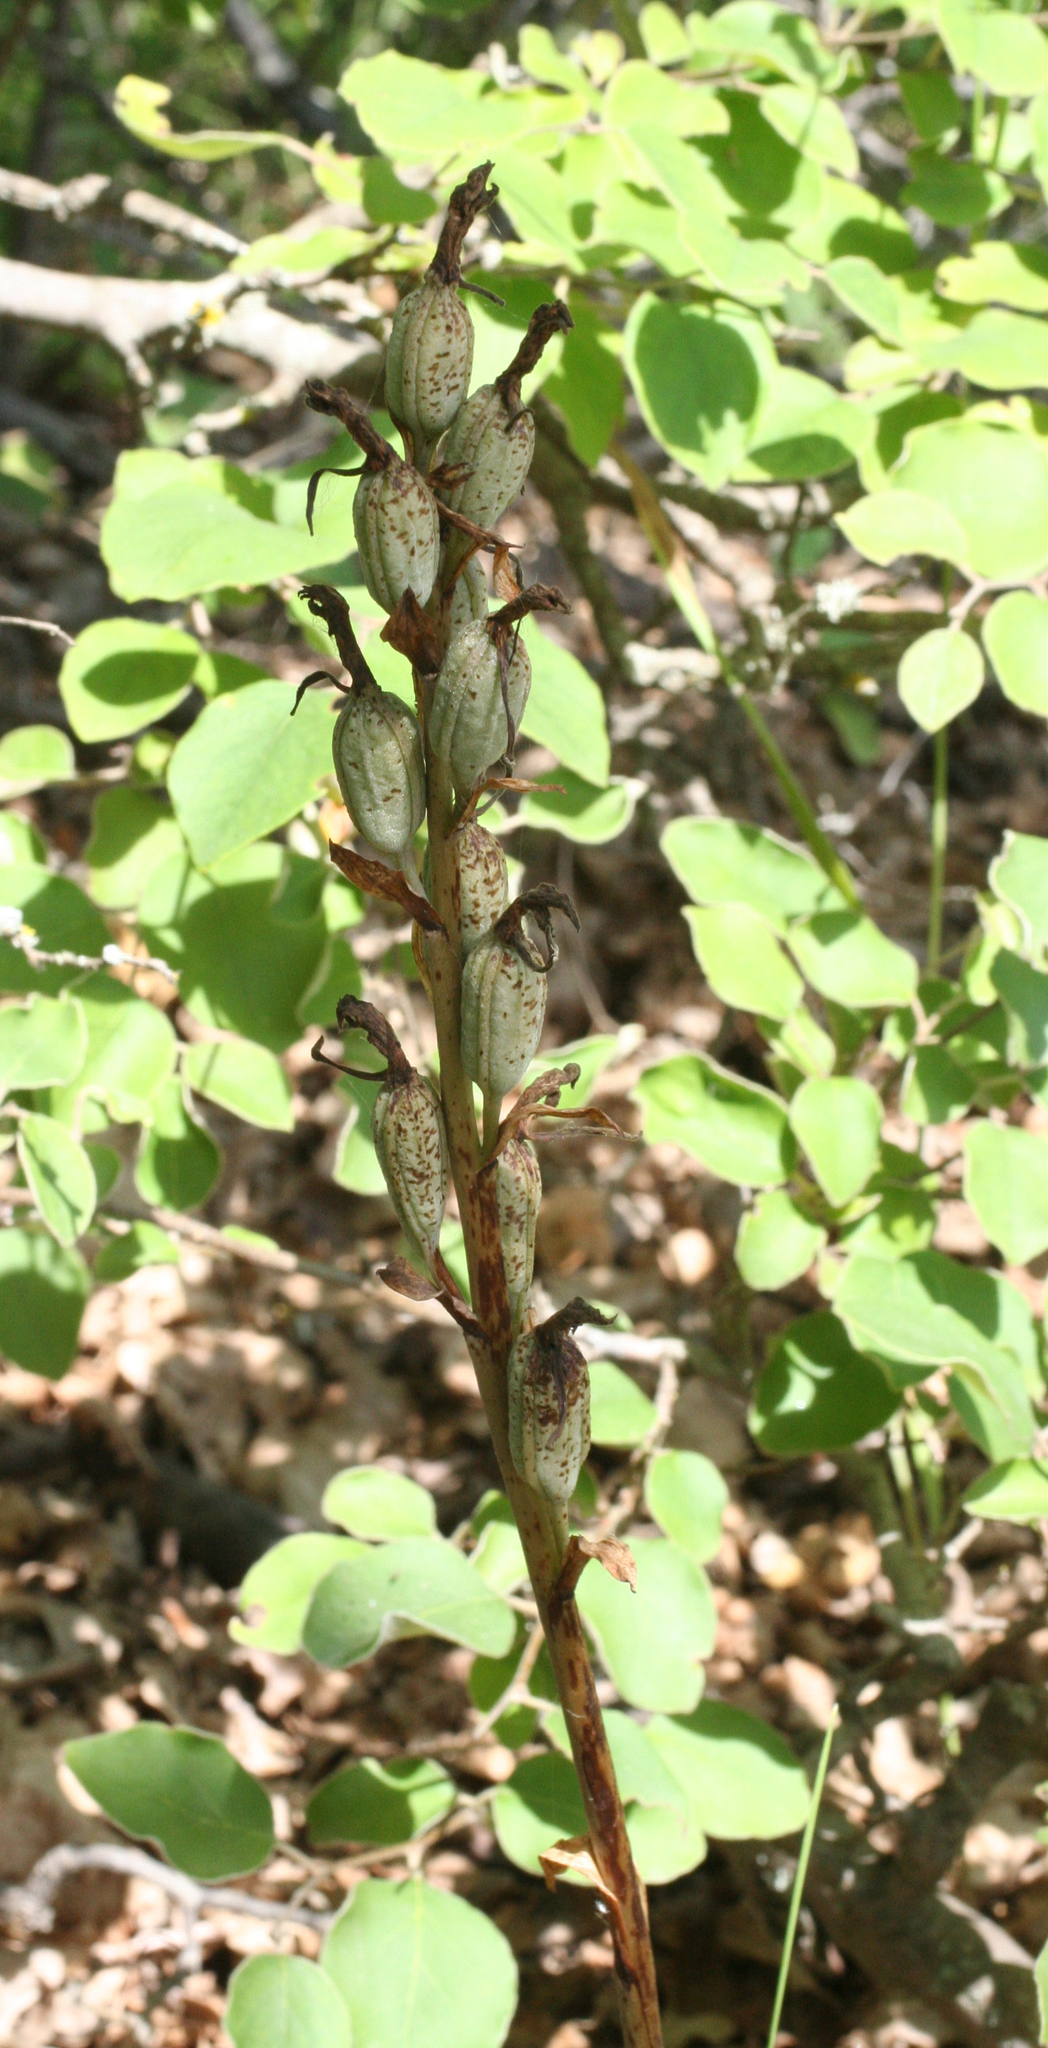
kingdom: Plantae
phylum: Tracheophyta
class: Liliopsida
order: Asparagales
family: Orchidaceae
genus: Limodorum
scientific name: Limodorum abortivum
